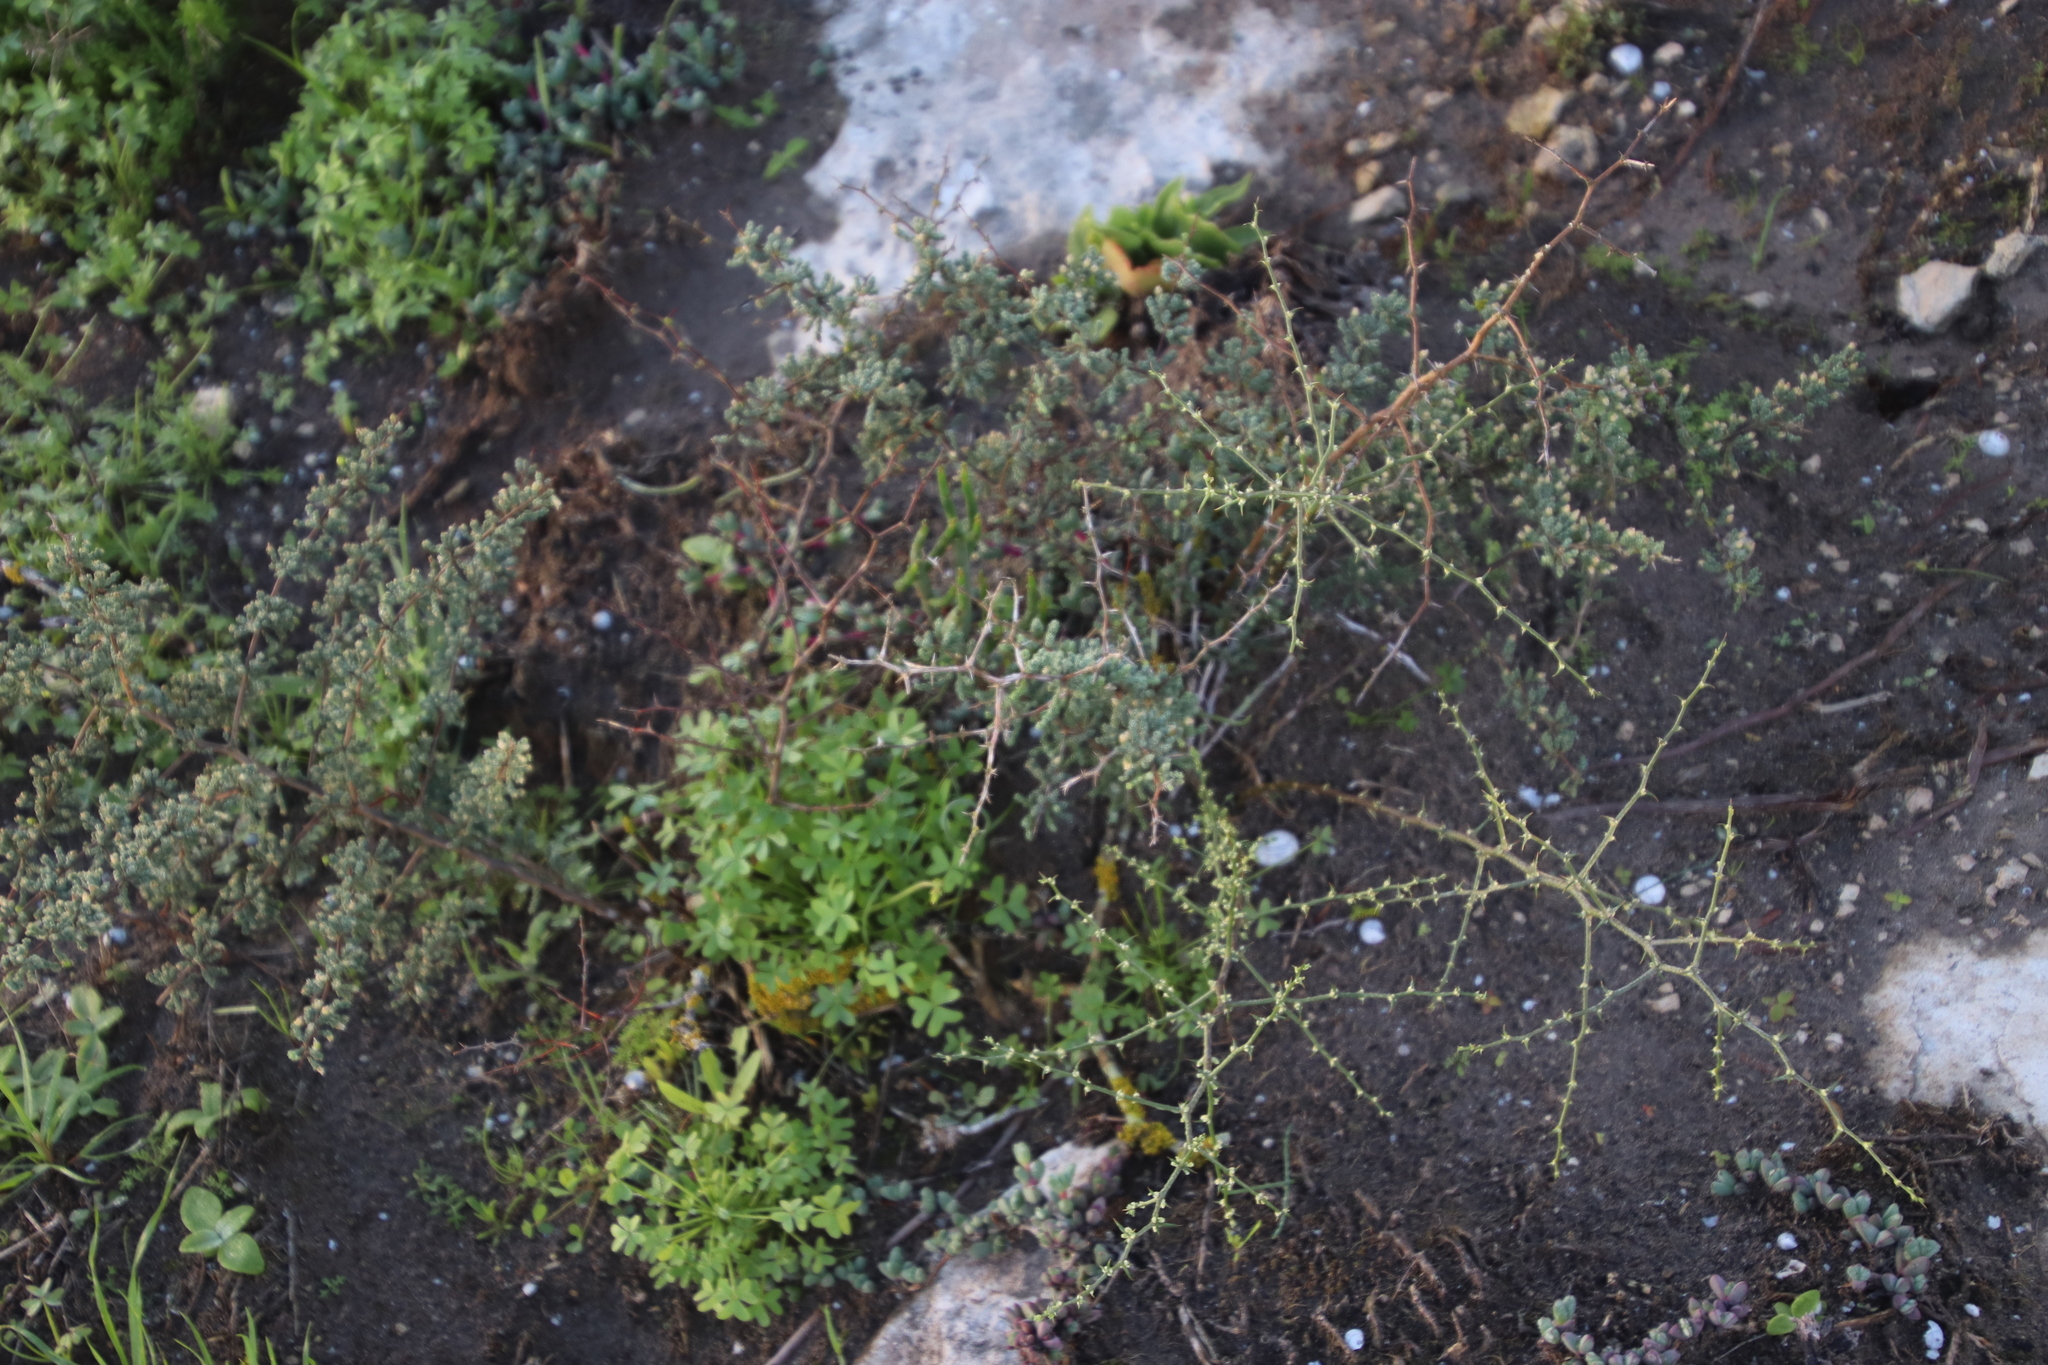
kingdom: Plantae
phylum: Tracheophyta
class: Liliopsida
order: Asparagales
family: Asparagaceae
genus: Asparagus
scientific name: Asparagus capensis
